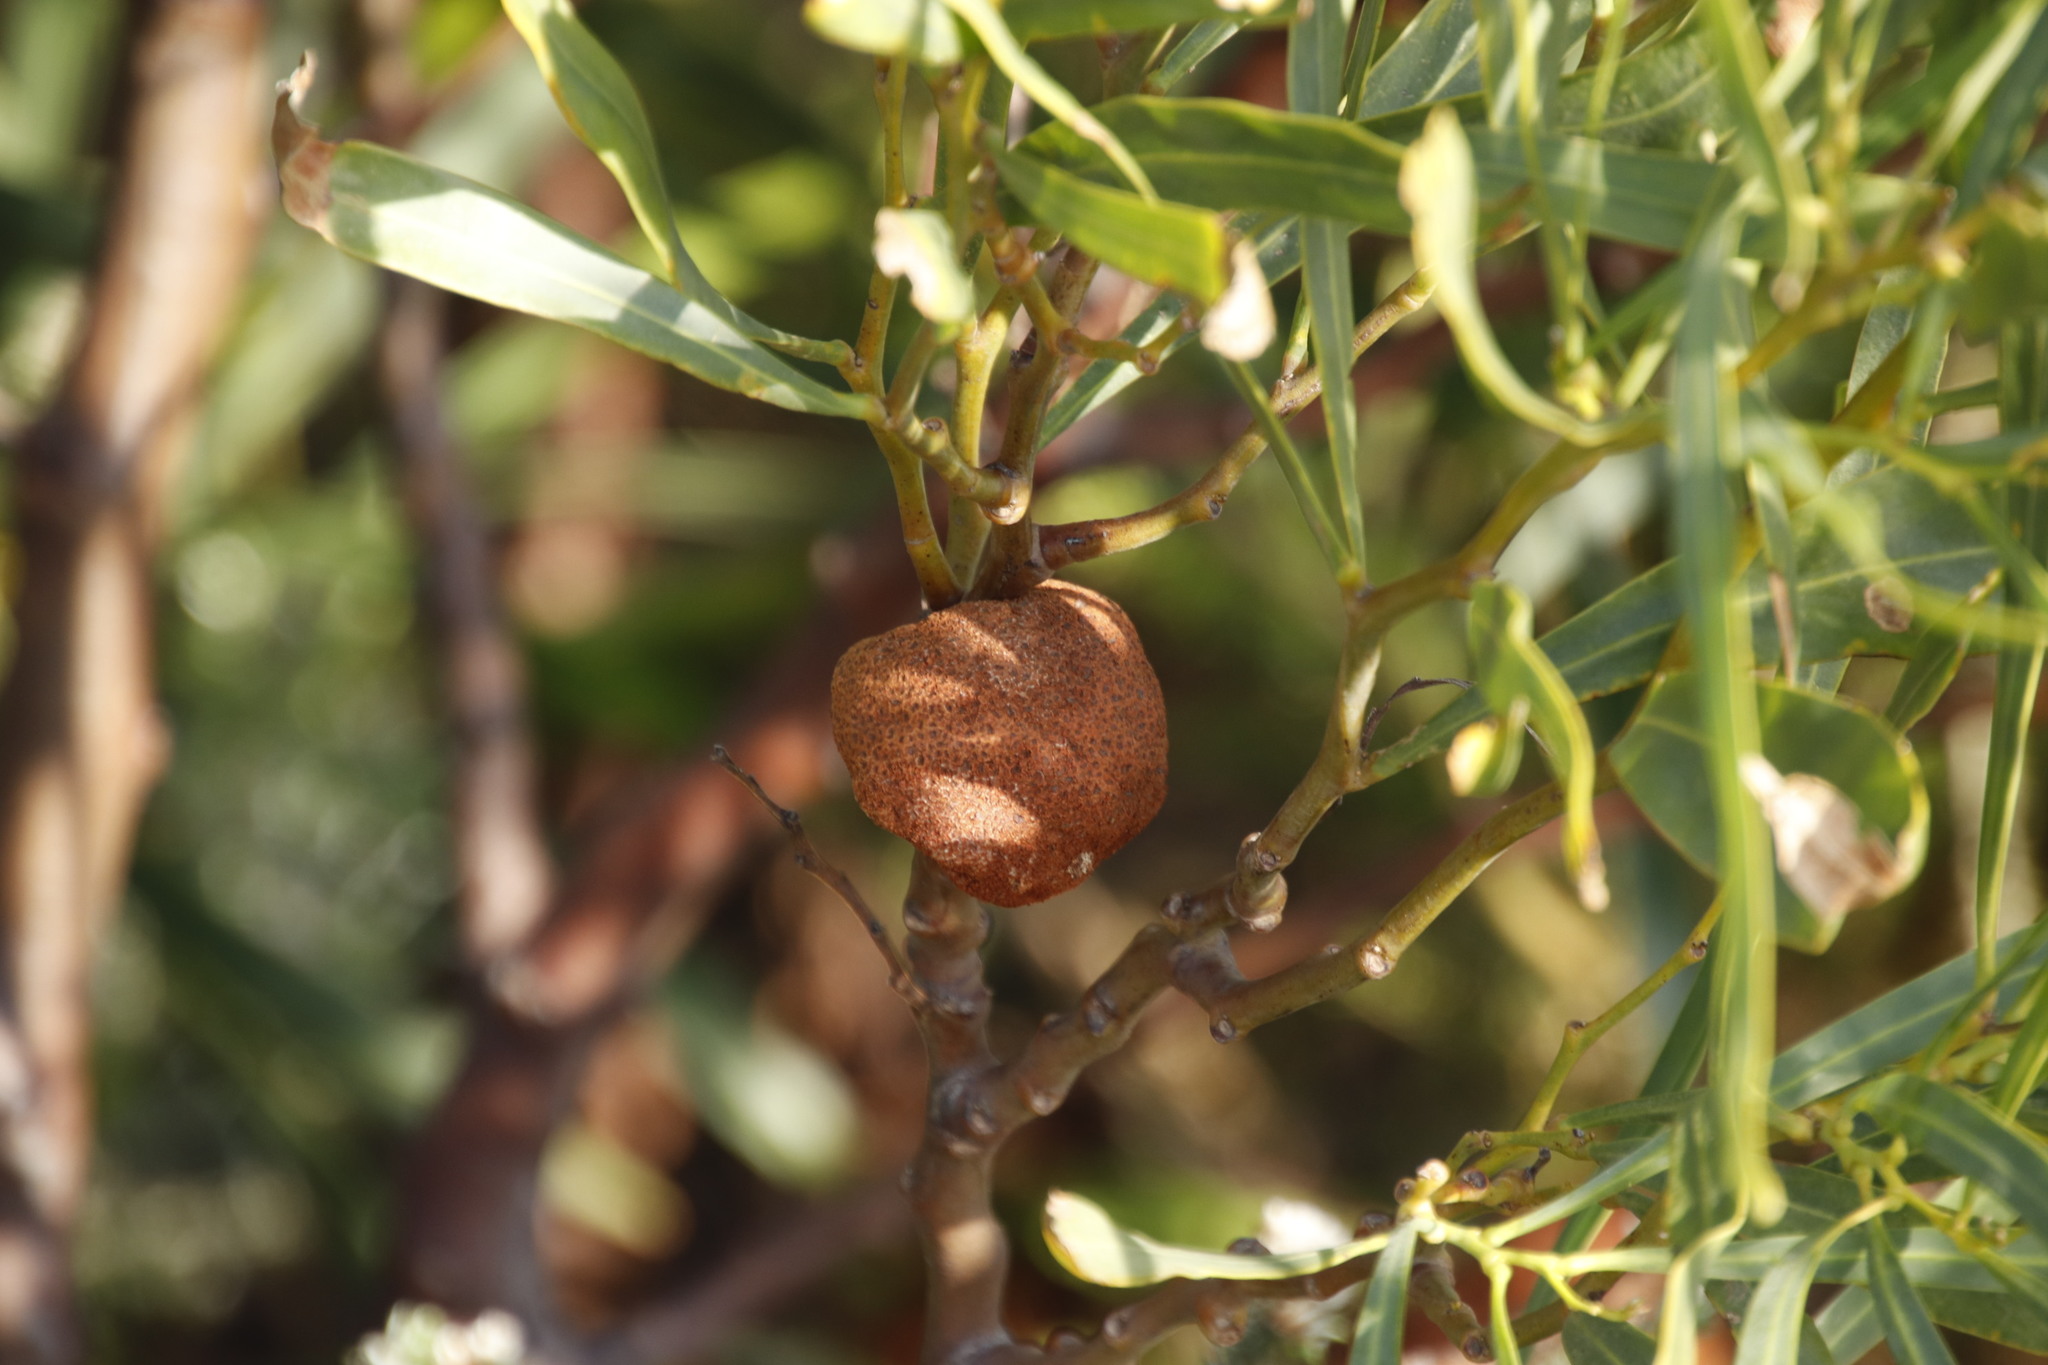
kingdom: Fungi
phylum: Basidiomycota
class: Pucciniomycetes
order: Pucciniales
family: Uromycladiaceae
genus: Uromycladium
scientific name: Uromycladium morrisii
